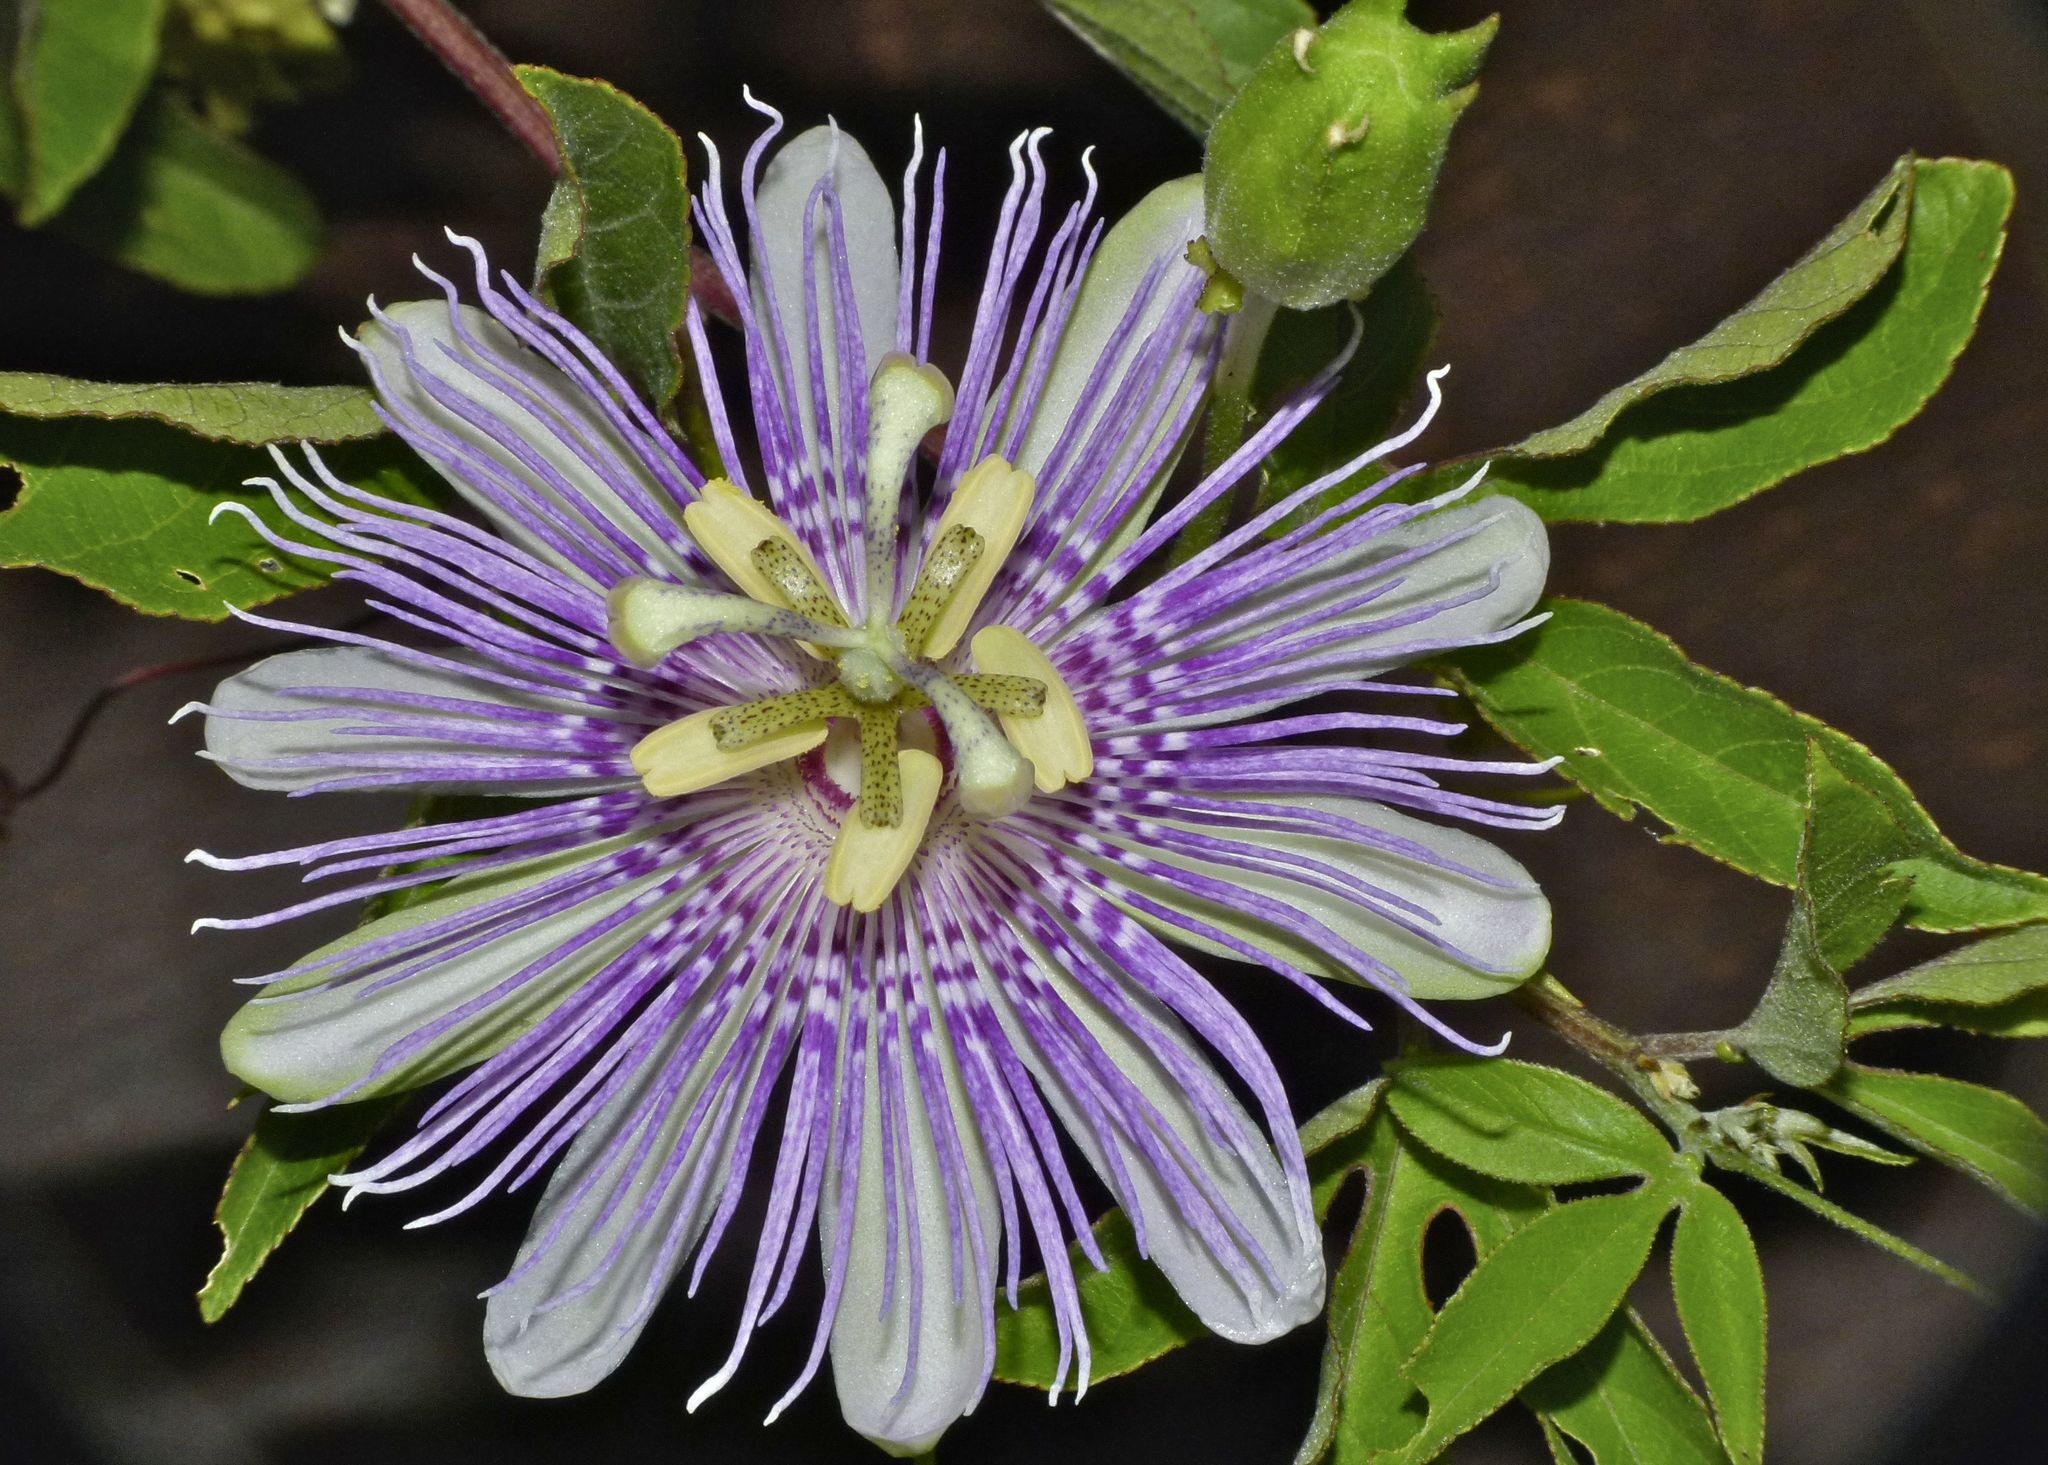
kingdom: Plantae
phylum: Tracheophyta
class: Magnoliopsida
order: Malpighiales
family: Passifloraceae
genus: Passiflora
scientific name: Passiflora incarnata
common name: Apricot-vine
